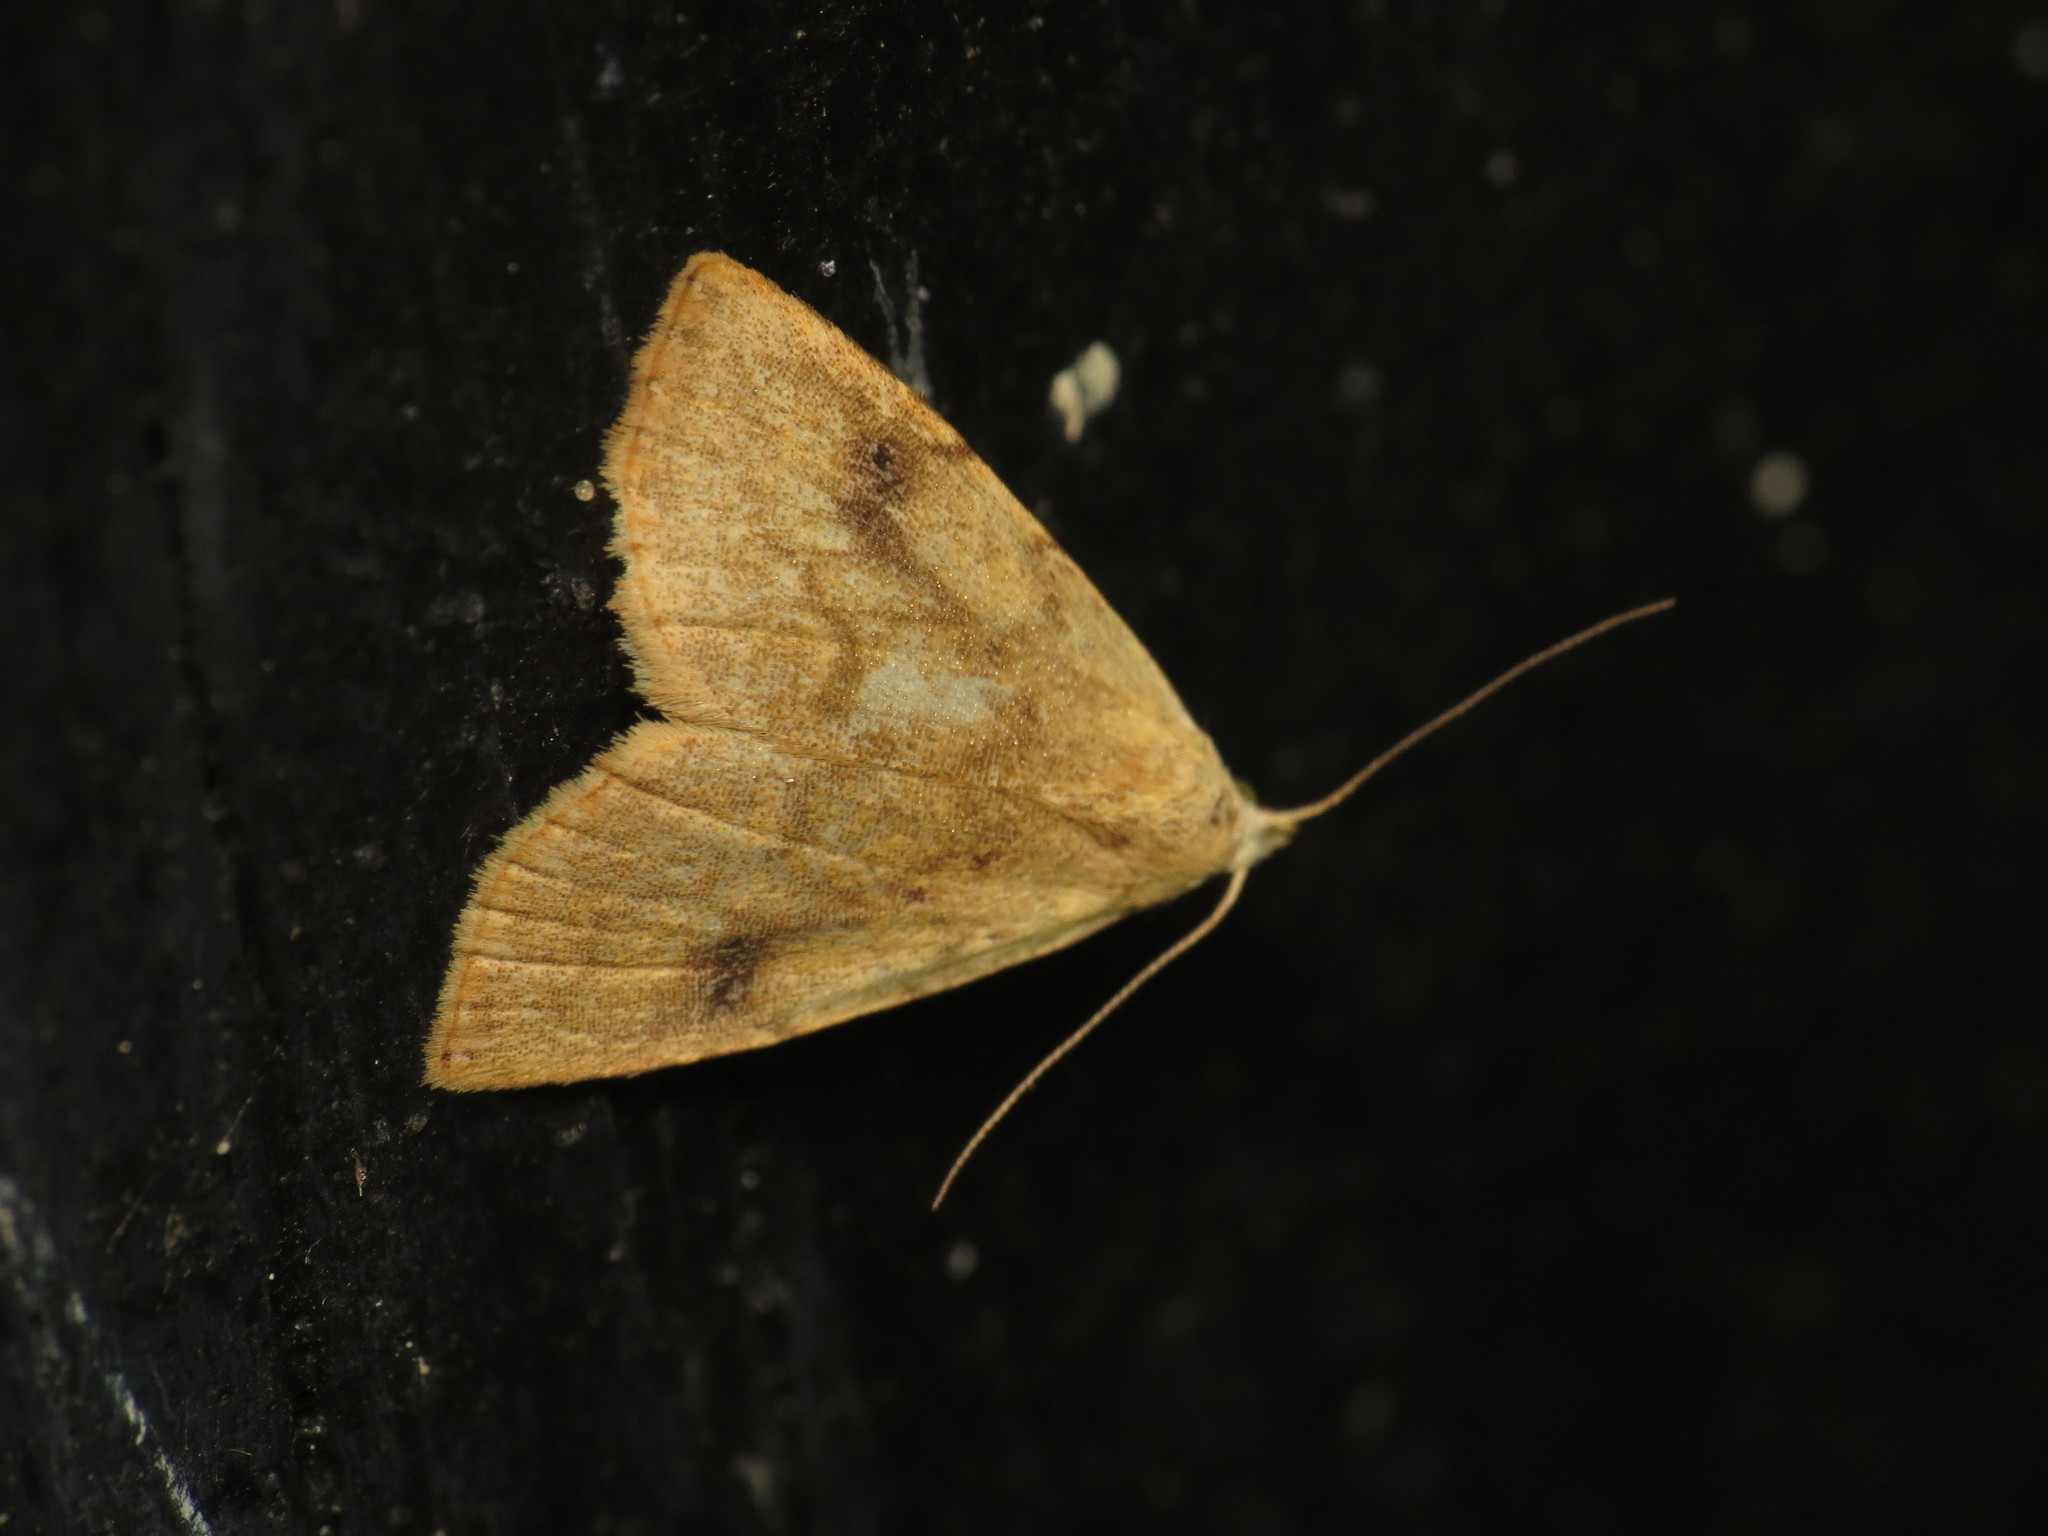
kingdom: Animalia
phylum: Arthropoda
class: Insecta
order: Lepidoptera
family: Erebidae
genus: Rivula
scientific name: Rivula sericealis
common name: Straw dot
